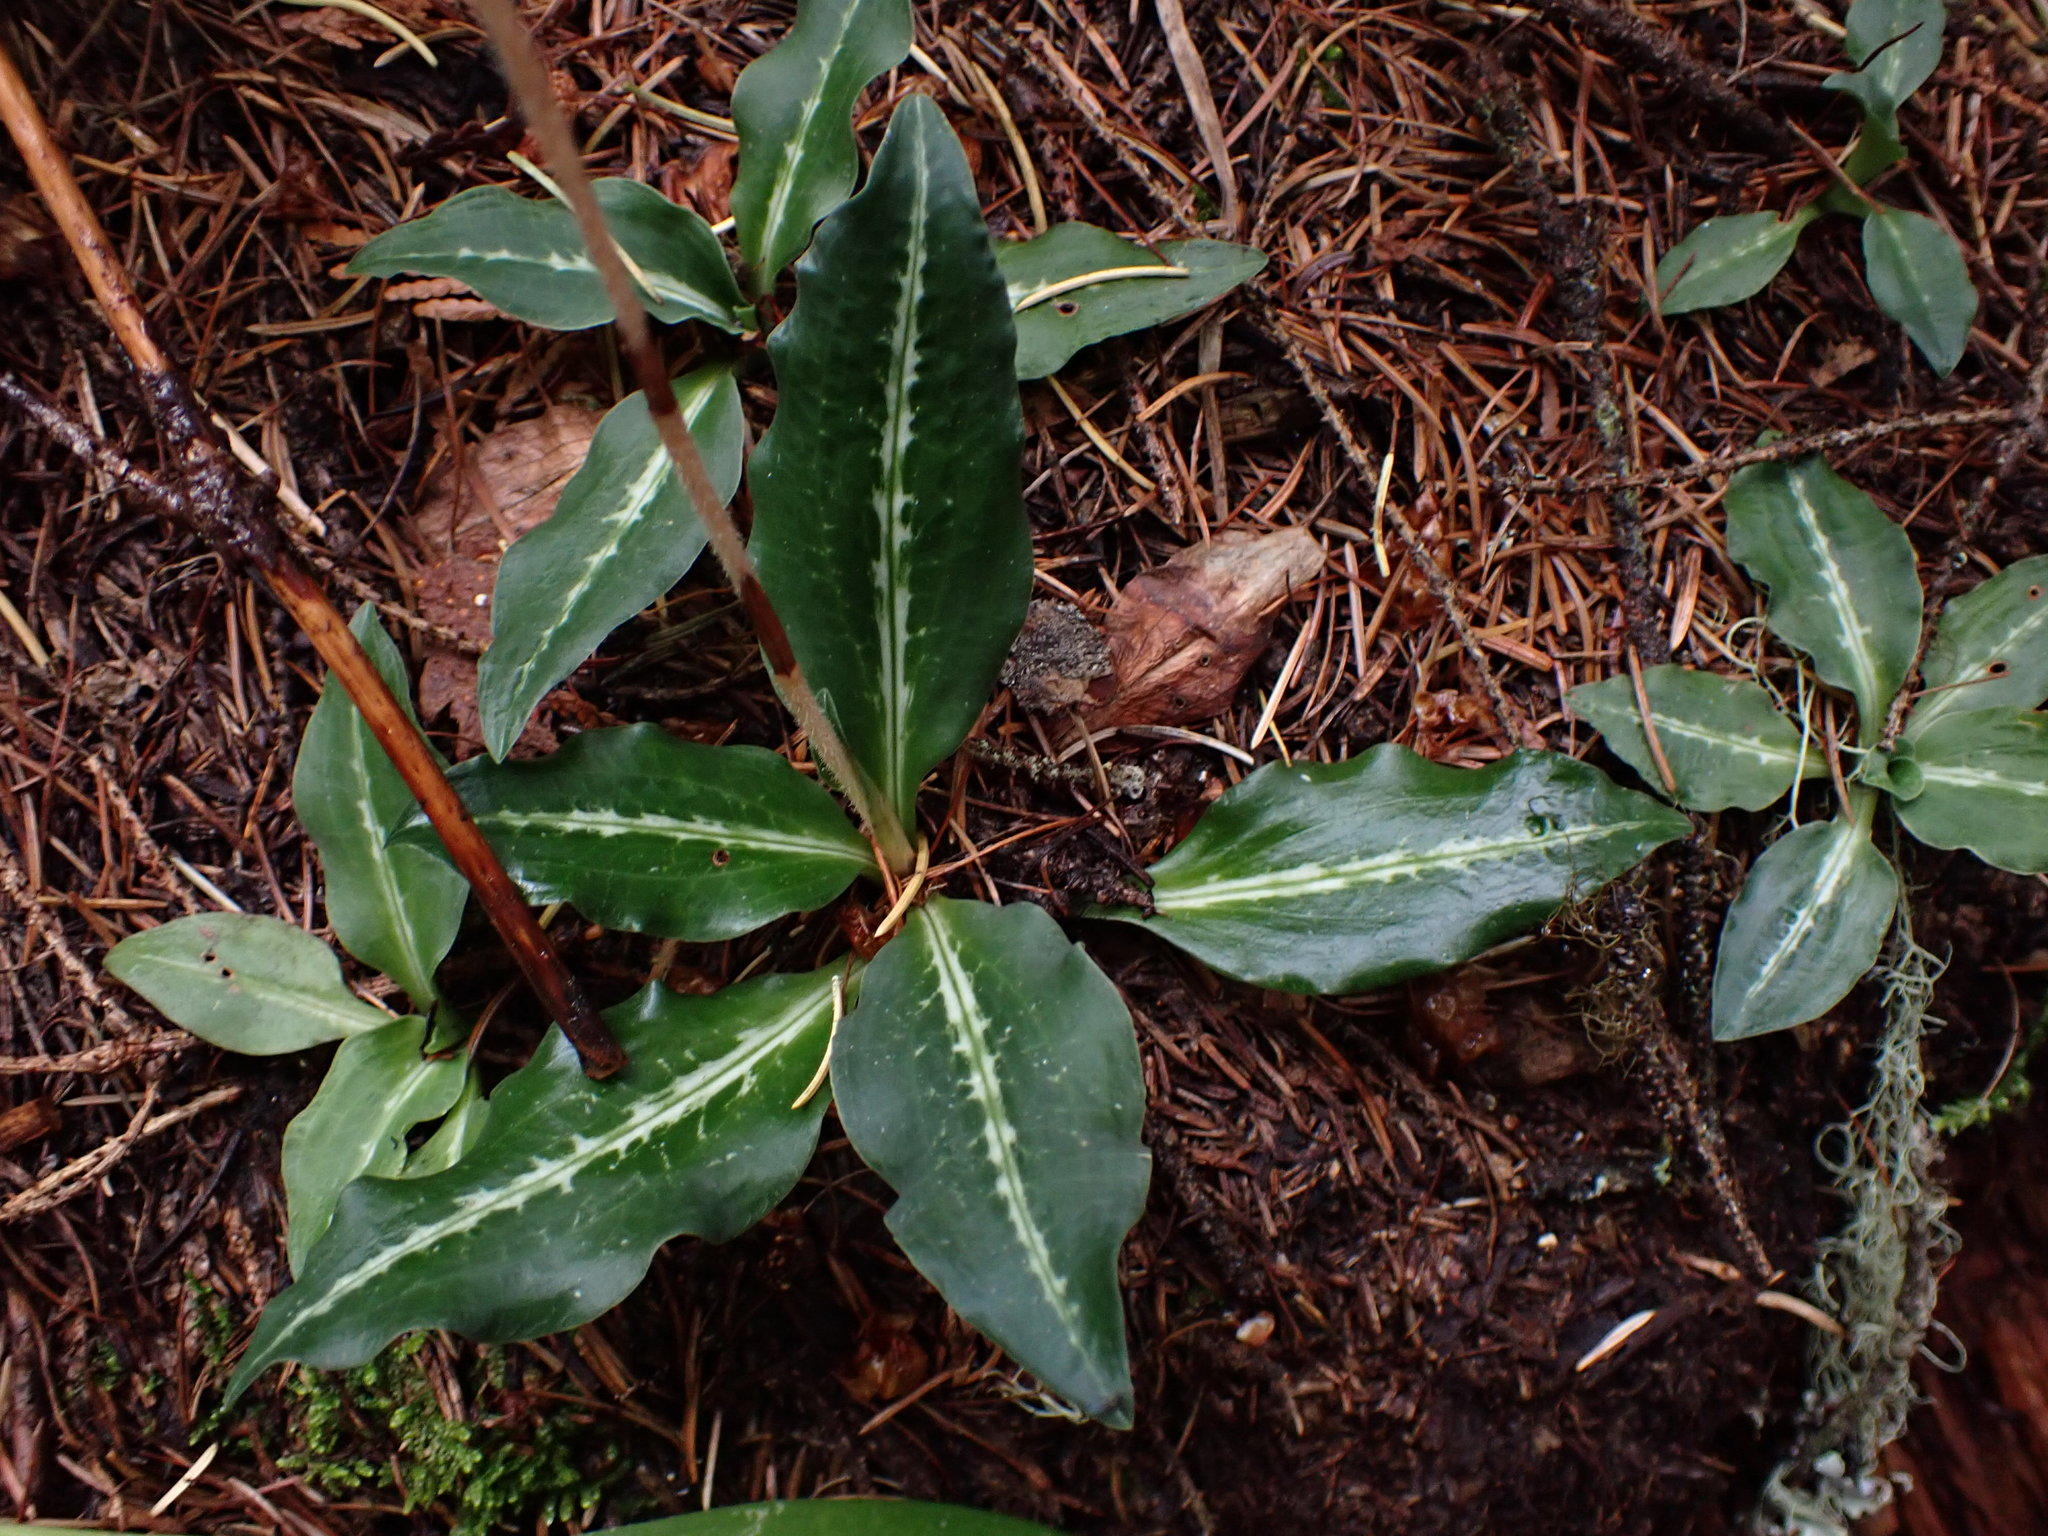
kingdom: Plantae
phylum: Tracheophyta
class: Liliopsida
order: Asparagales
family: Orchidaceae
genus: Goodyera
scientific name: Goodyera oblongifolia
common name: Giant rattlesnake-plantain
